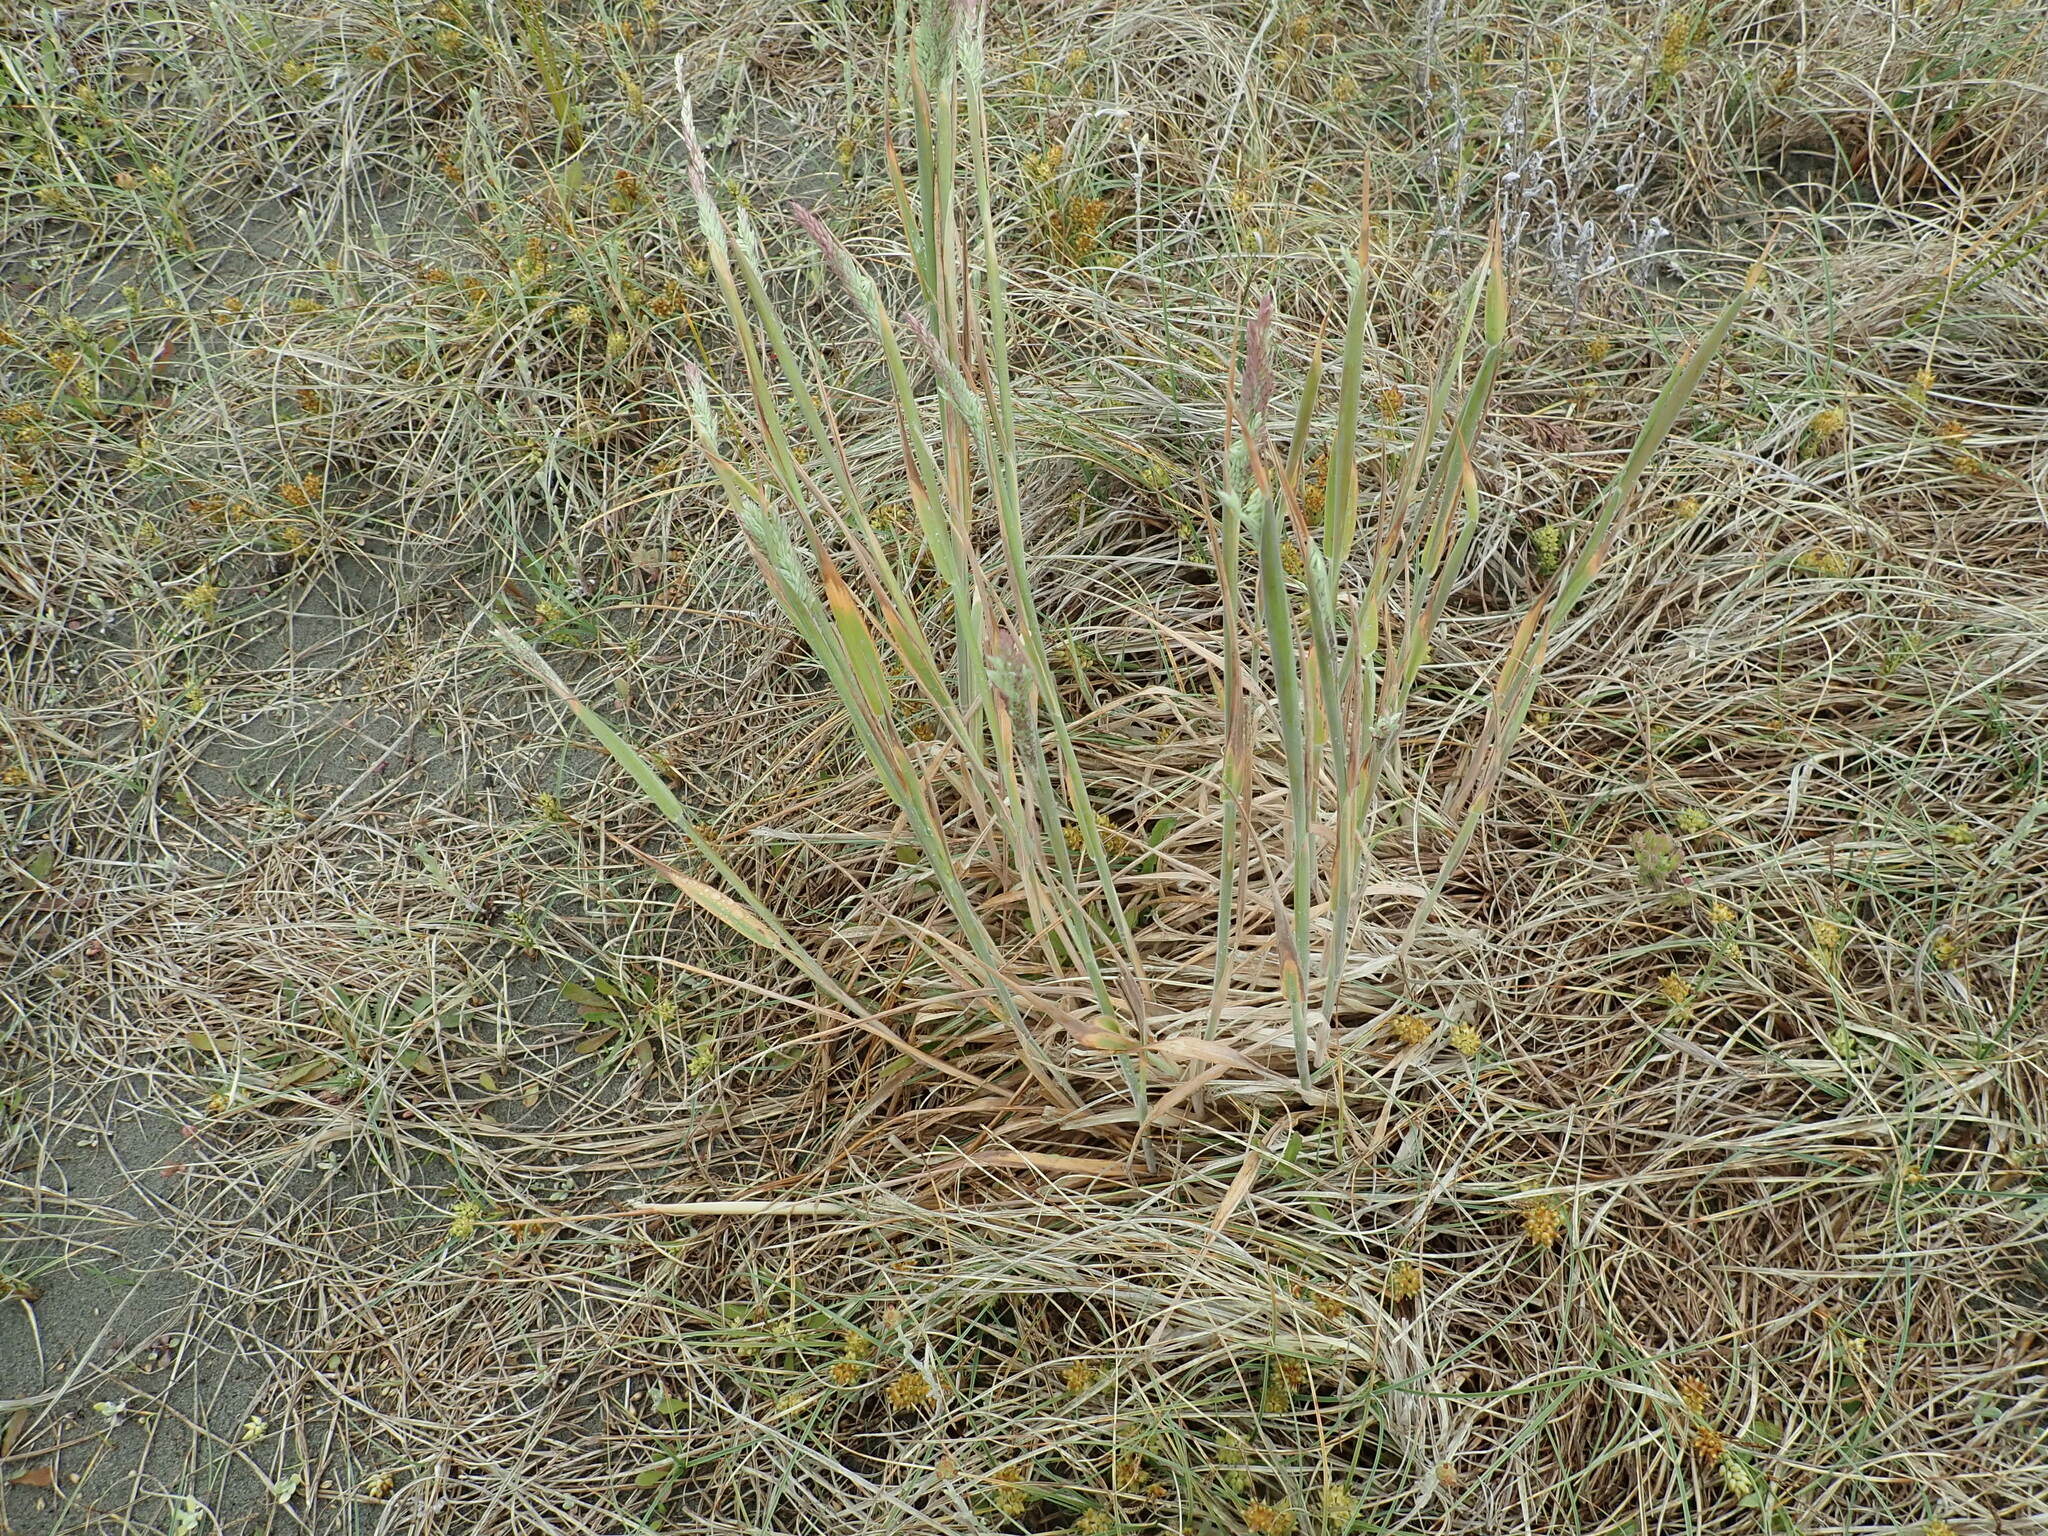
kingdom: Plantae
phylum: Tracheophyta
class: Liliopsida
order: Poales
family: Poaceae
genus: Holcus
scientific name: Holcus lanatus
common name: Yorkshire-fog
